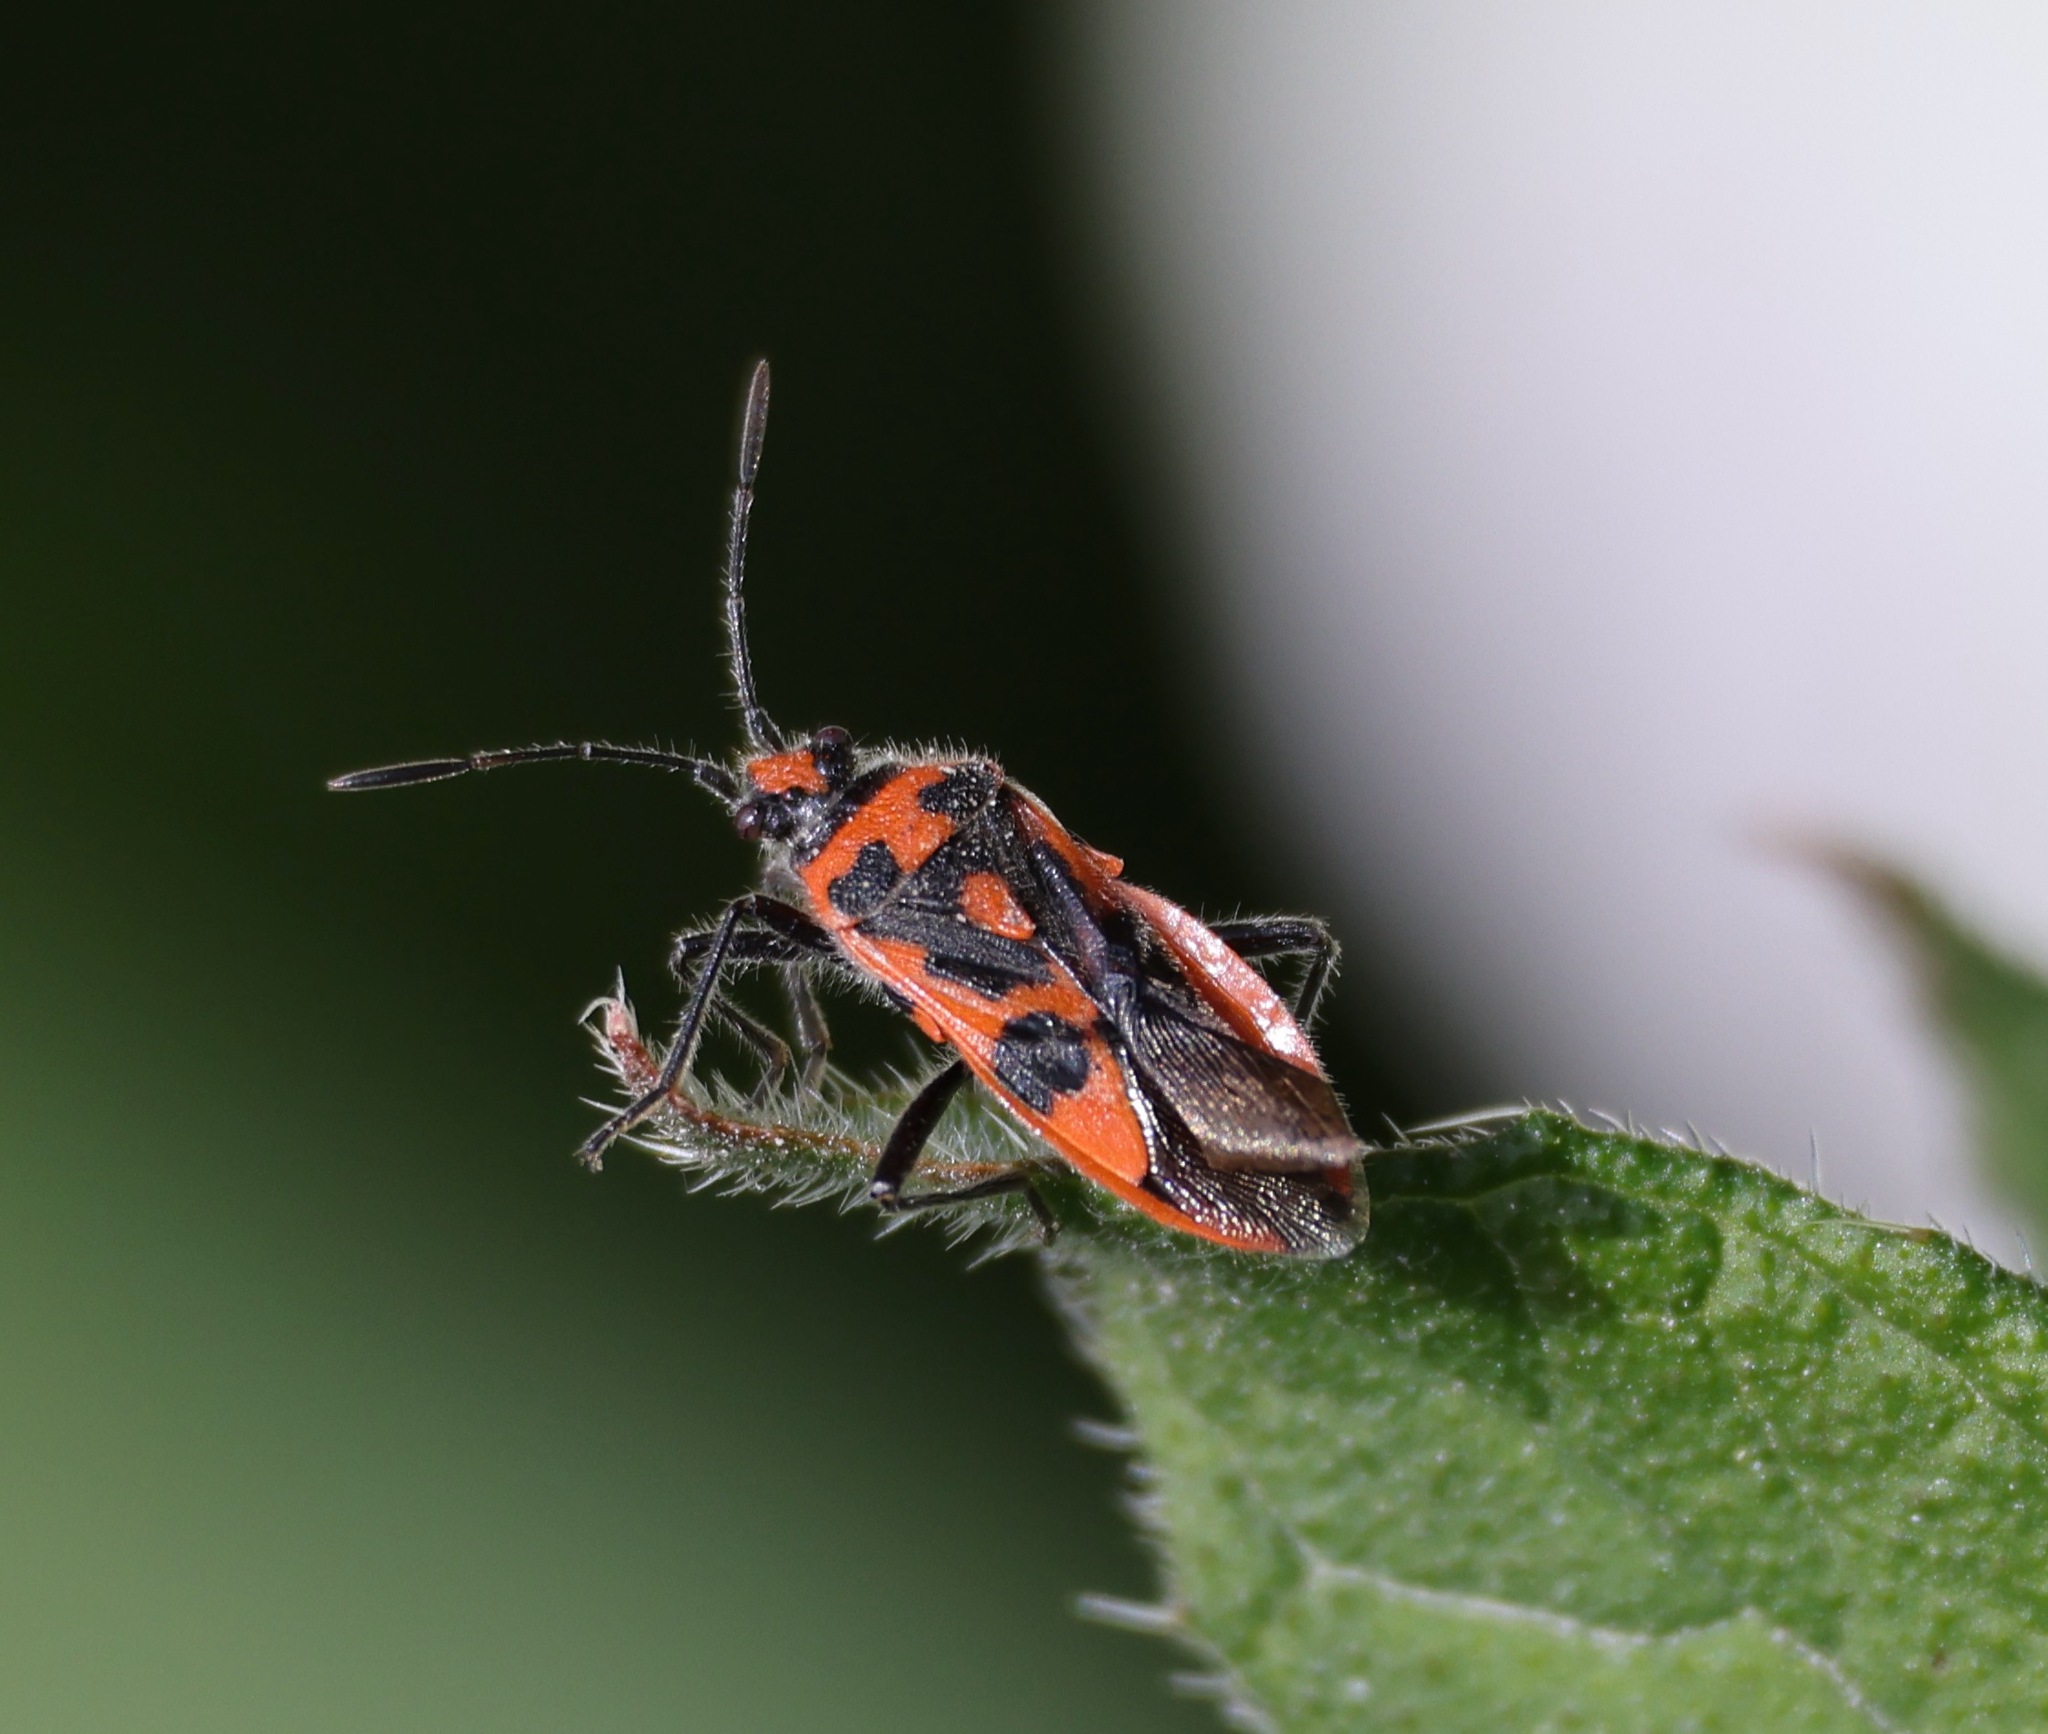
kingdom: Animalia
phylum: Arthropoda
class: Insecta
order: Hemiptera
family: Rhopalidae
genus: Corizus
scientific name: Corizus hyoscyami
